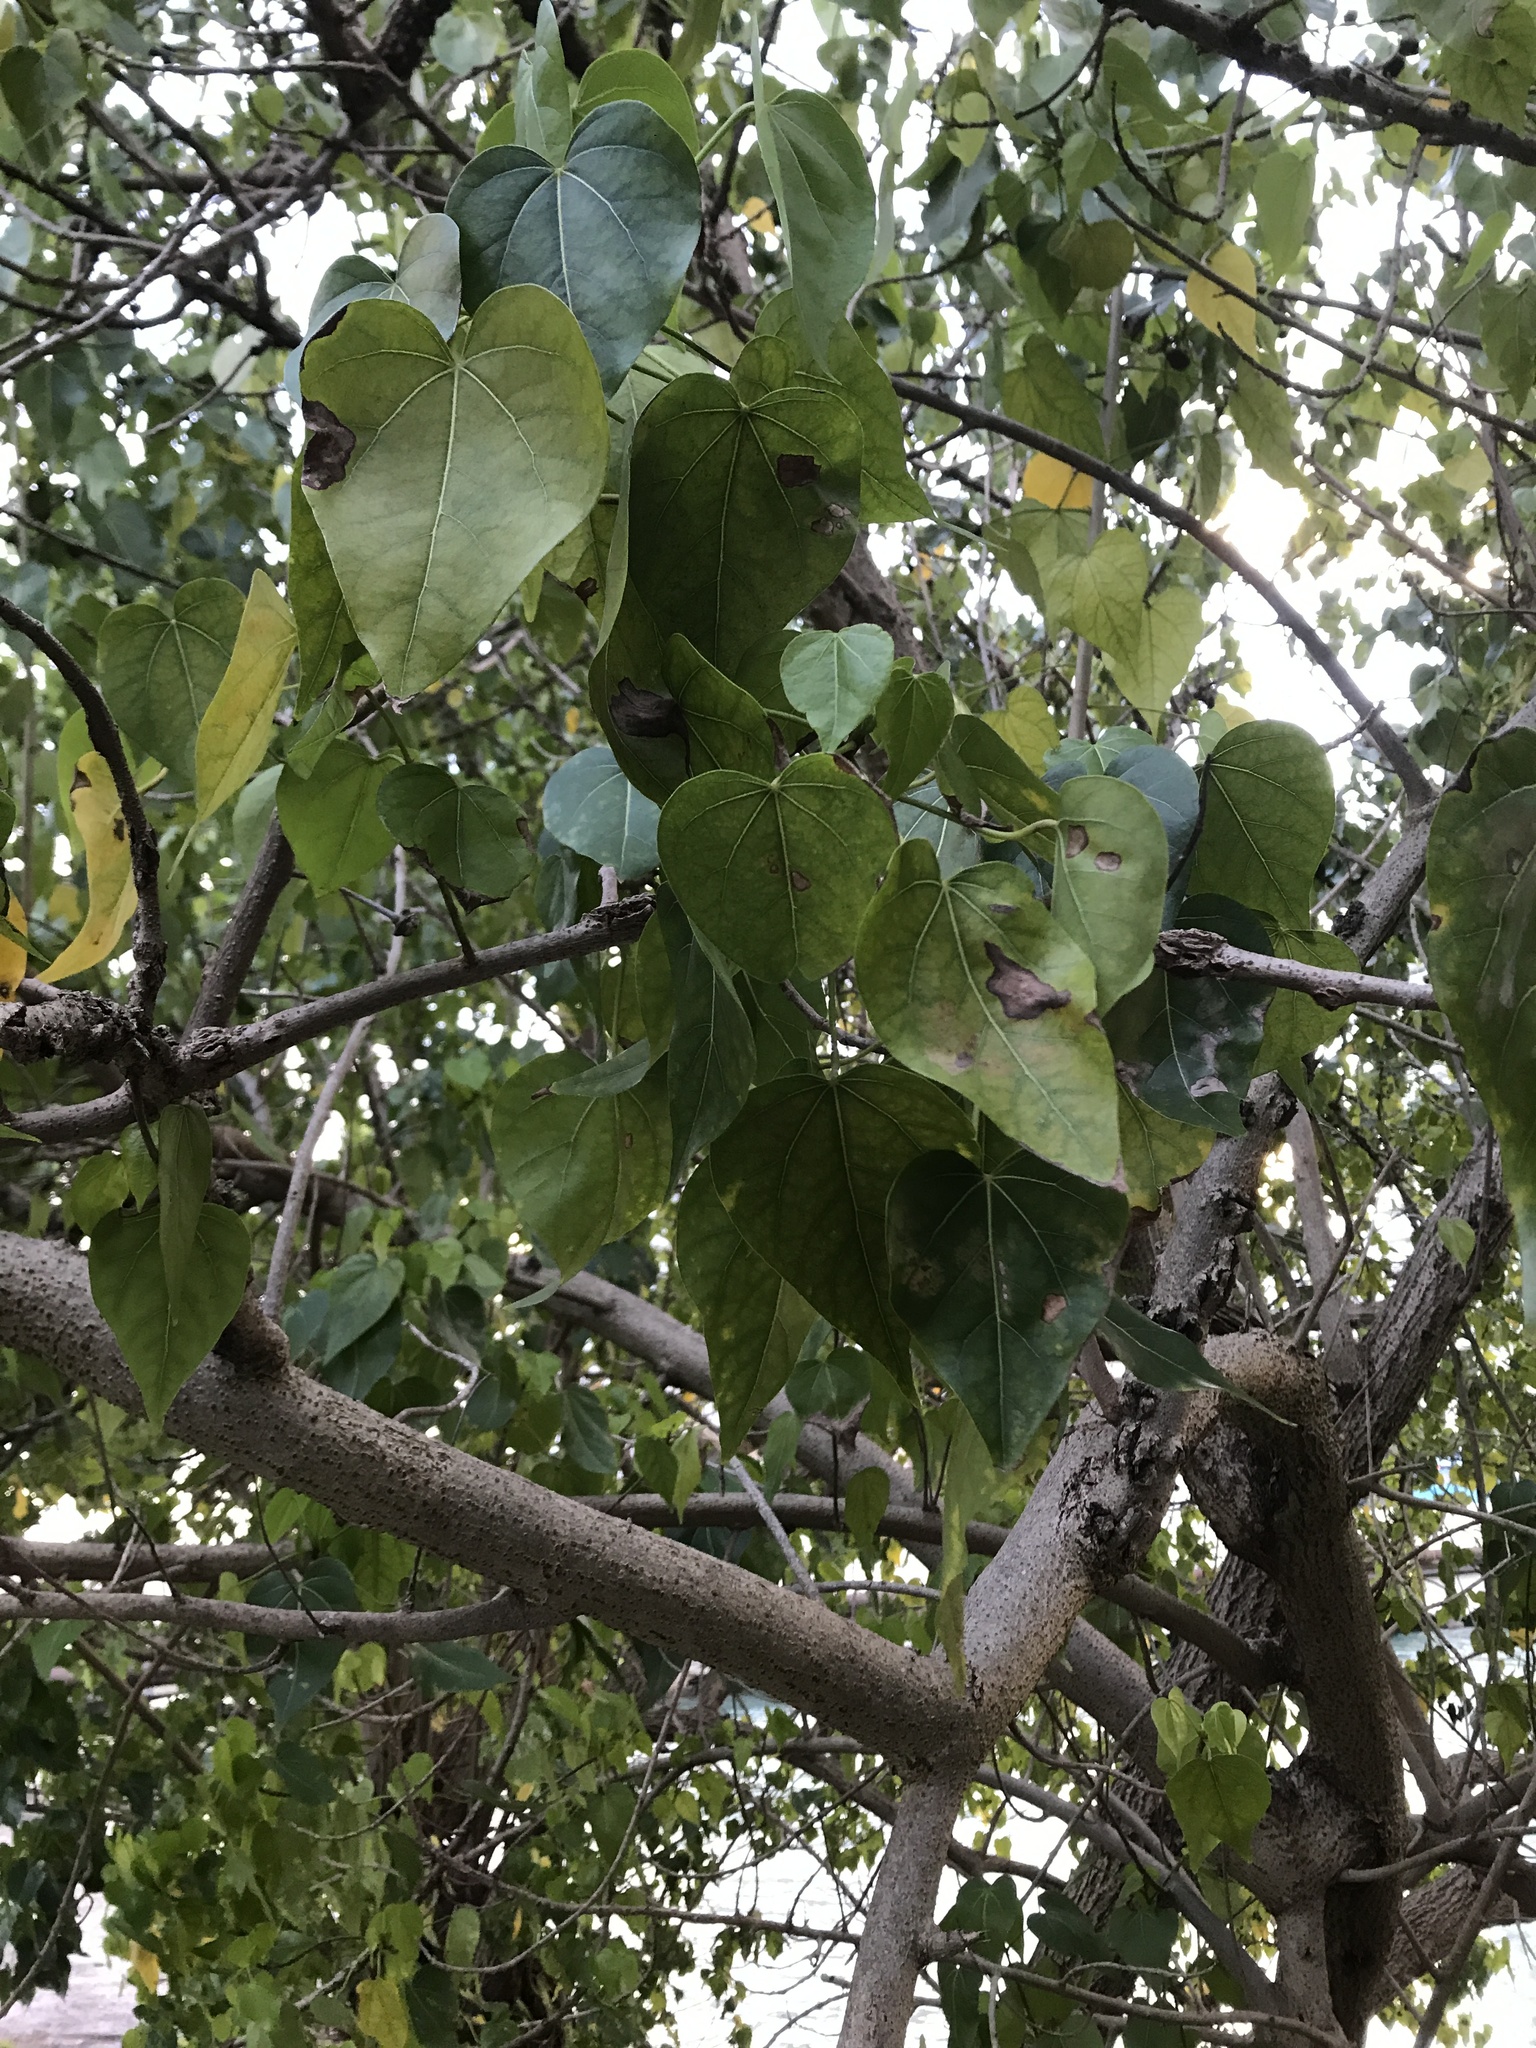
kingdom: Plantae
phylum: Tracheophyta
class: Magnoliopsida
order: Malvales
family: Malvaceae
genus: Thespesia
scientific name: Thespesia populnea
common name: Seaside mahoe
